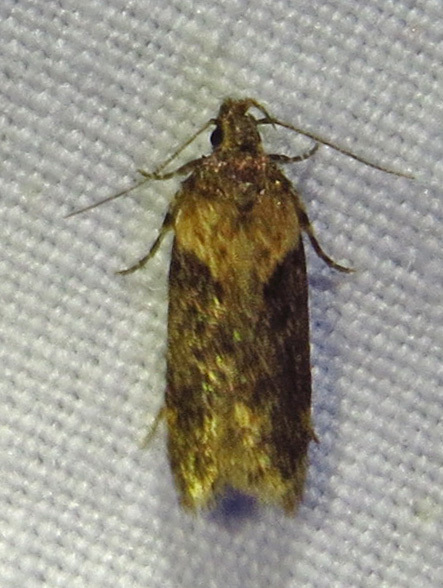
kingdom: Animalia
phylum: Arthropoda
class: Insecta
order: Lepidoptera
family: Gelechiidae
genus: Chionodes
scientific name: Chionodes mediofuscella
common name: Black-smudged chionodes moth
